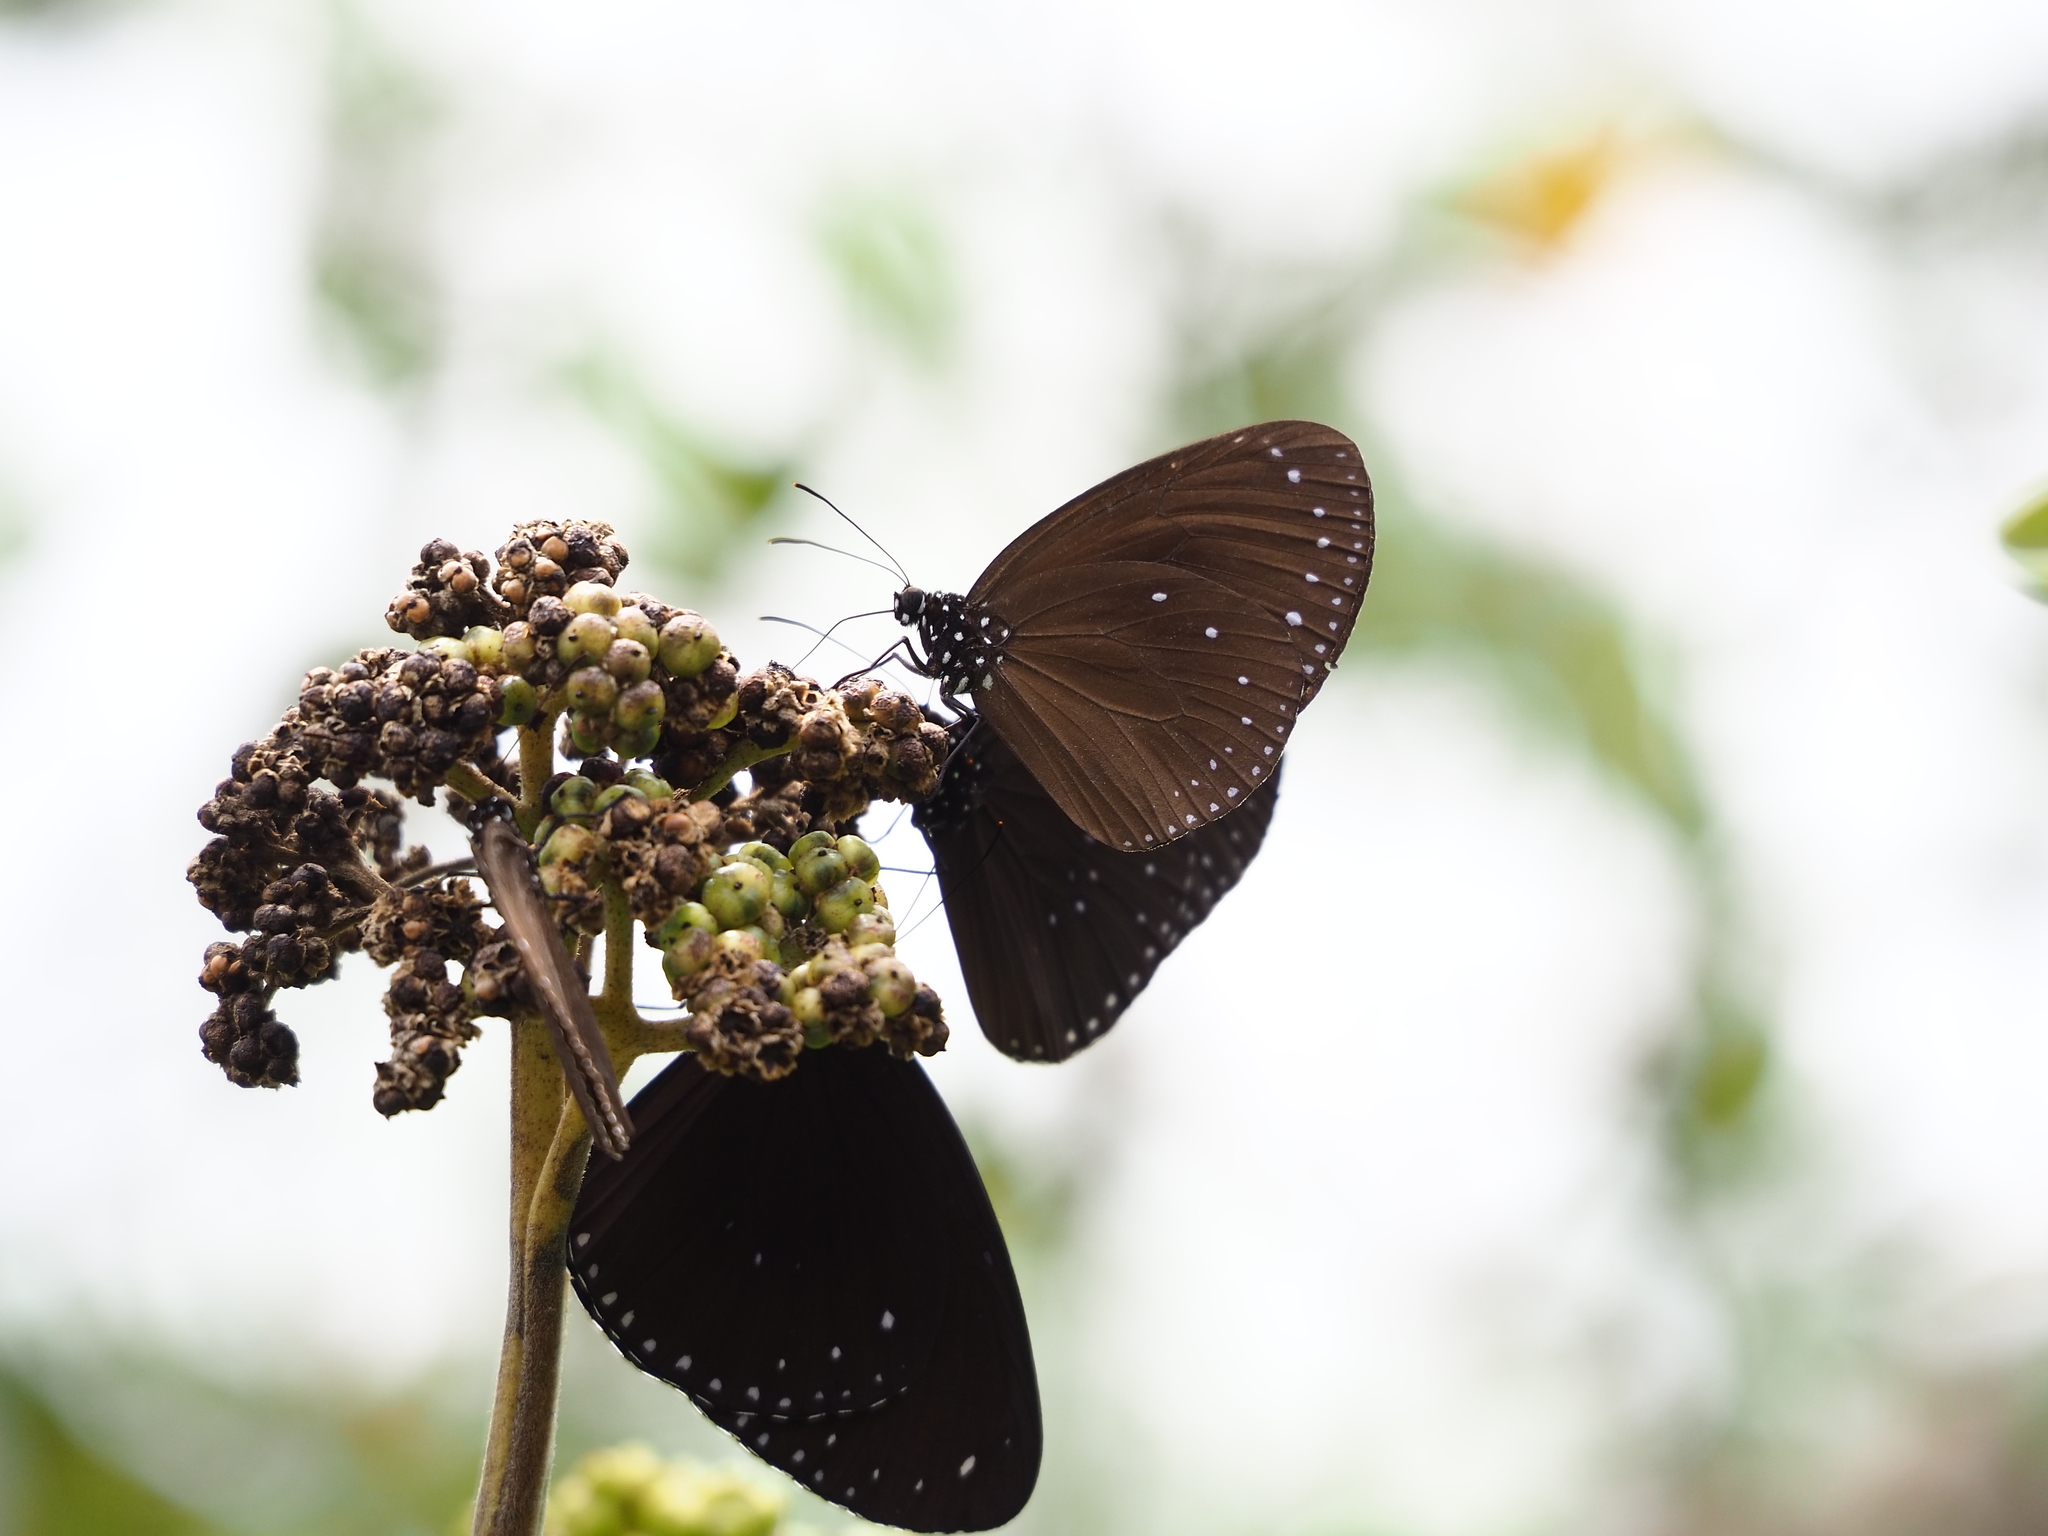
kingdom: Animalia
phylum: Arthropoda
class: Insecta
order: Lepidoptera
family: Nymphalidae
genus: Euploea
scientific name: Euploea tulliolus
